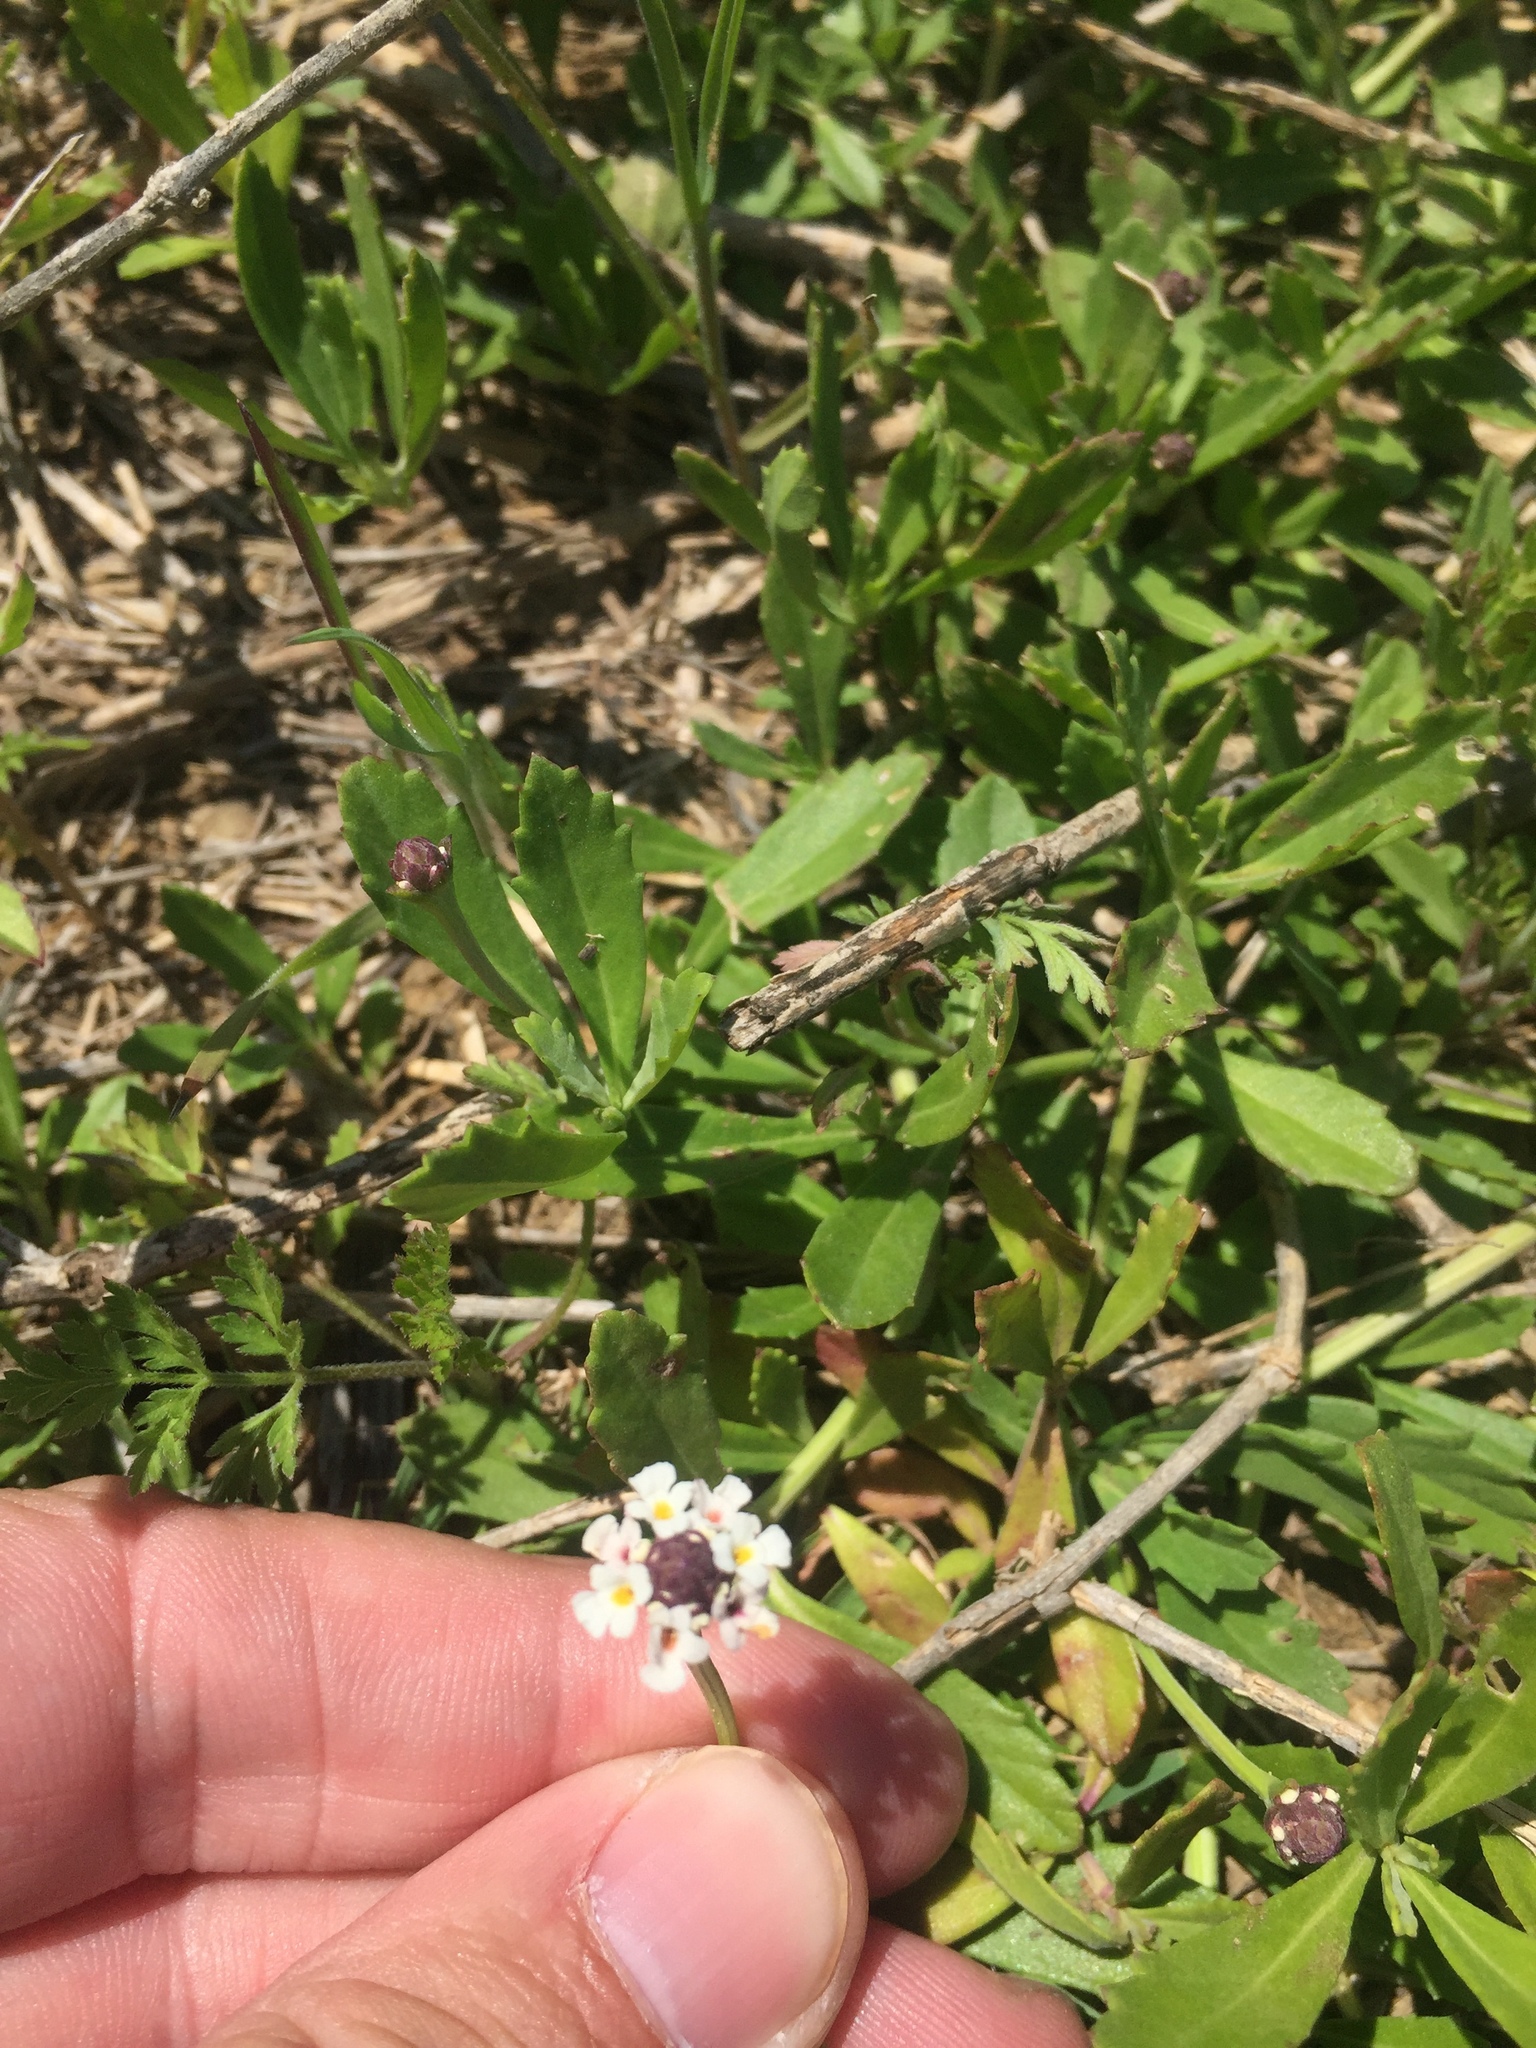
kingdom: Plantae
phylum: Tracheophyta
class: Magnoliopsida
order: Lamiales
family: Verbenaceae
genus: Phyla
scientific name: Phyla nodiflora
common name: Frogfruit
